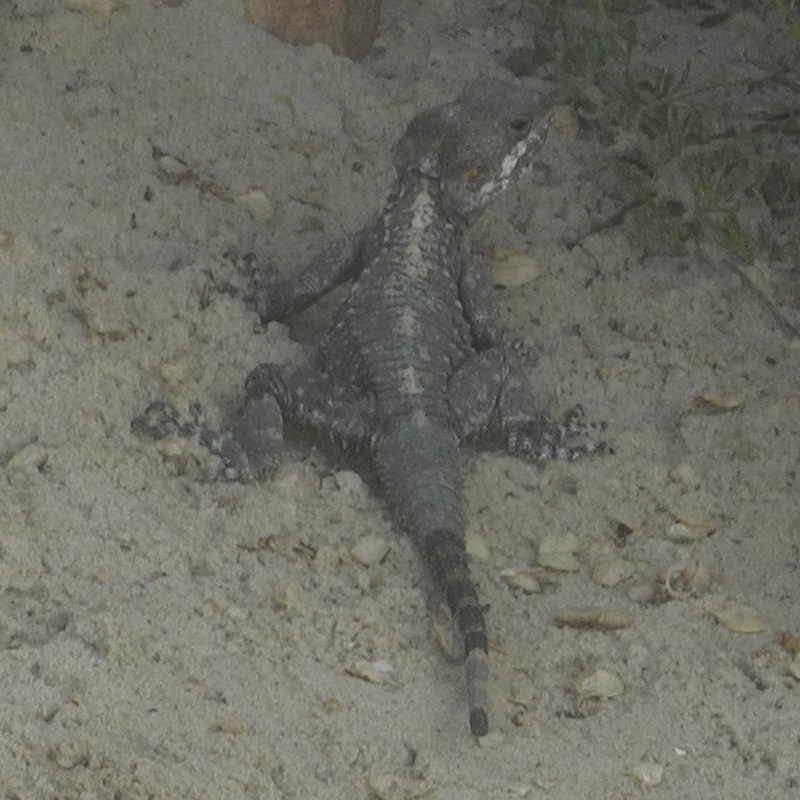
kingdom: Animalia
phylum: Chordata
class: Squamata
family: Agamidae
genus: Laudakia
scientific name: Laudakia vulgaris
